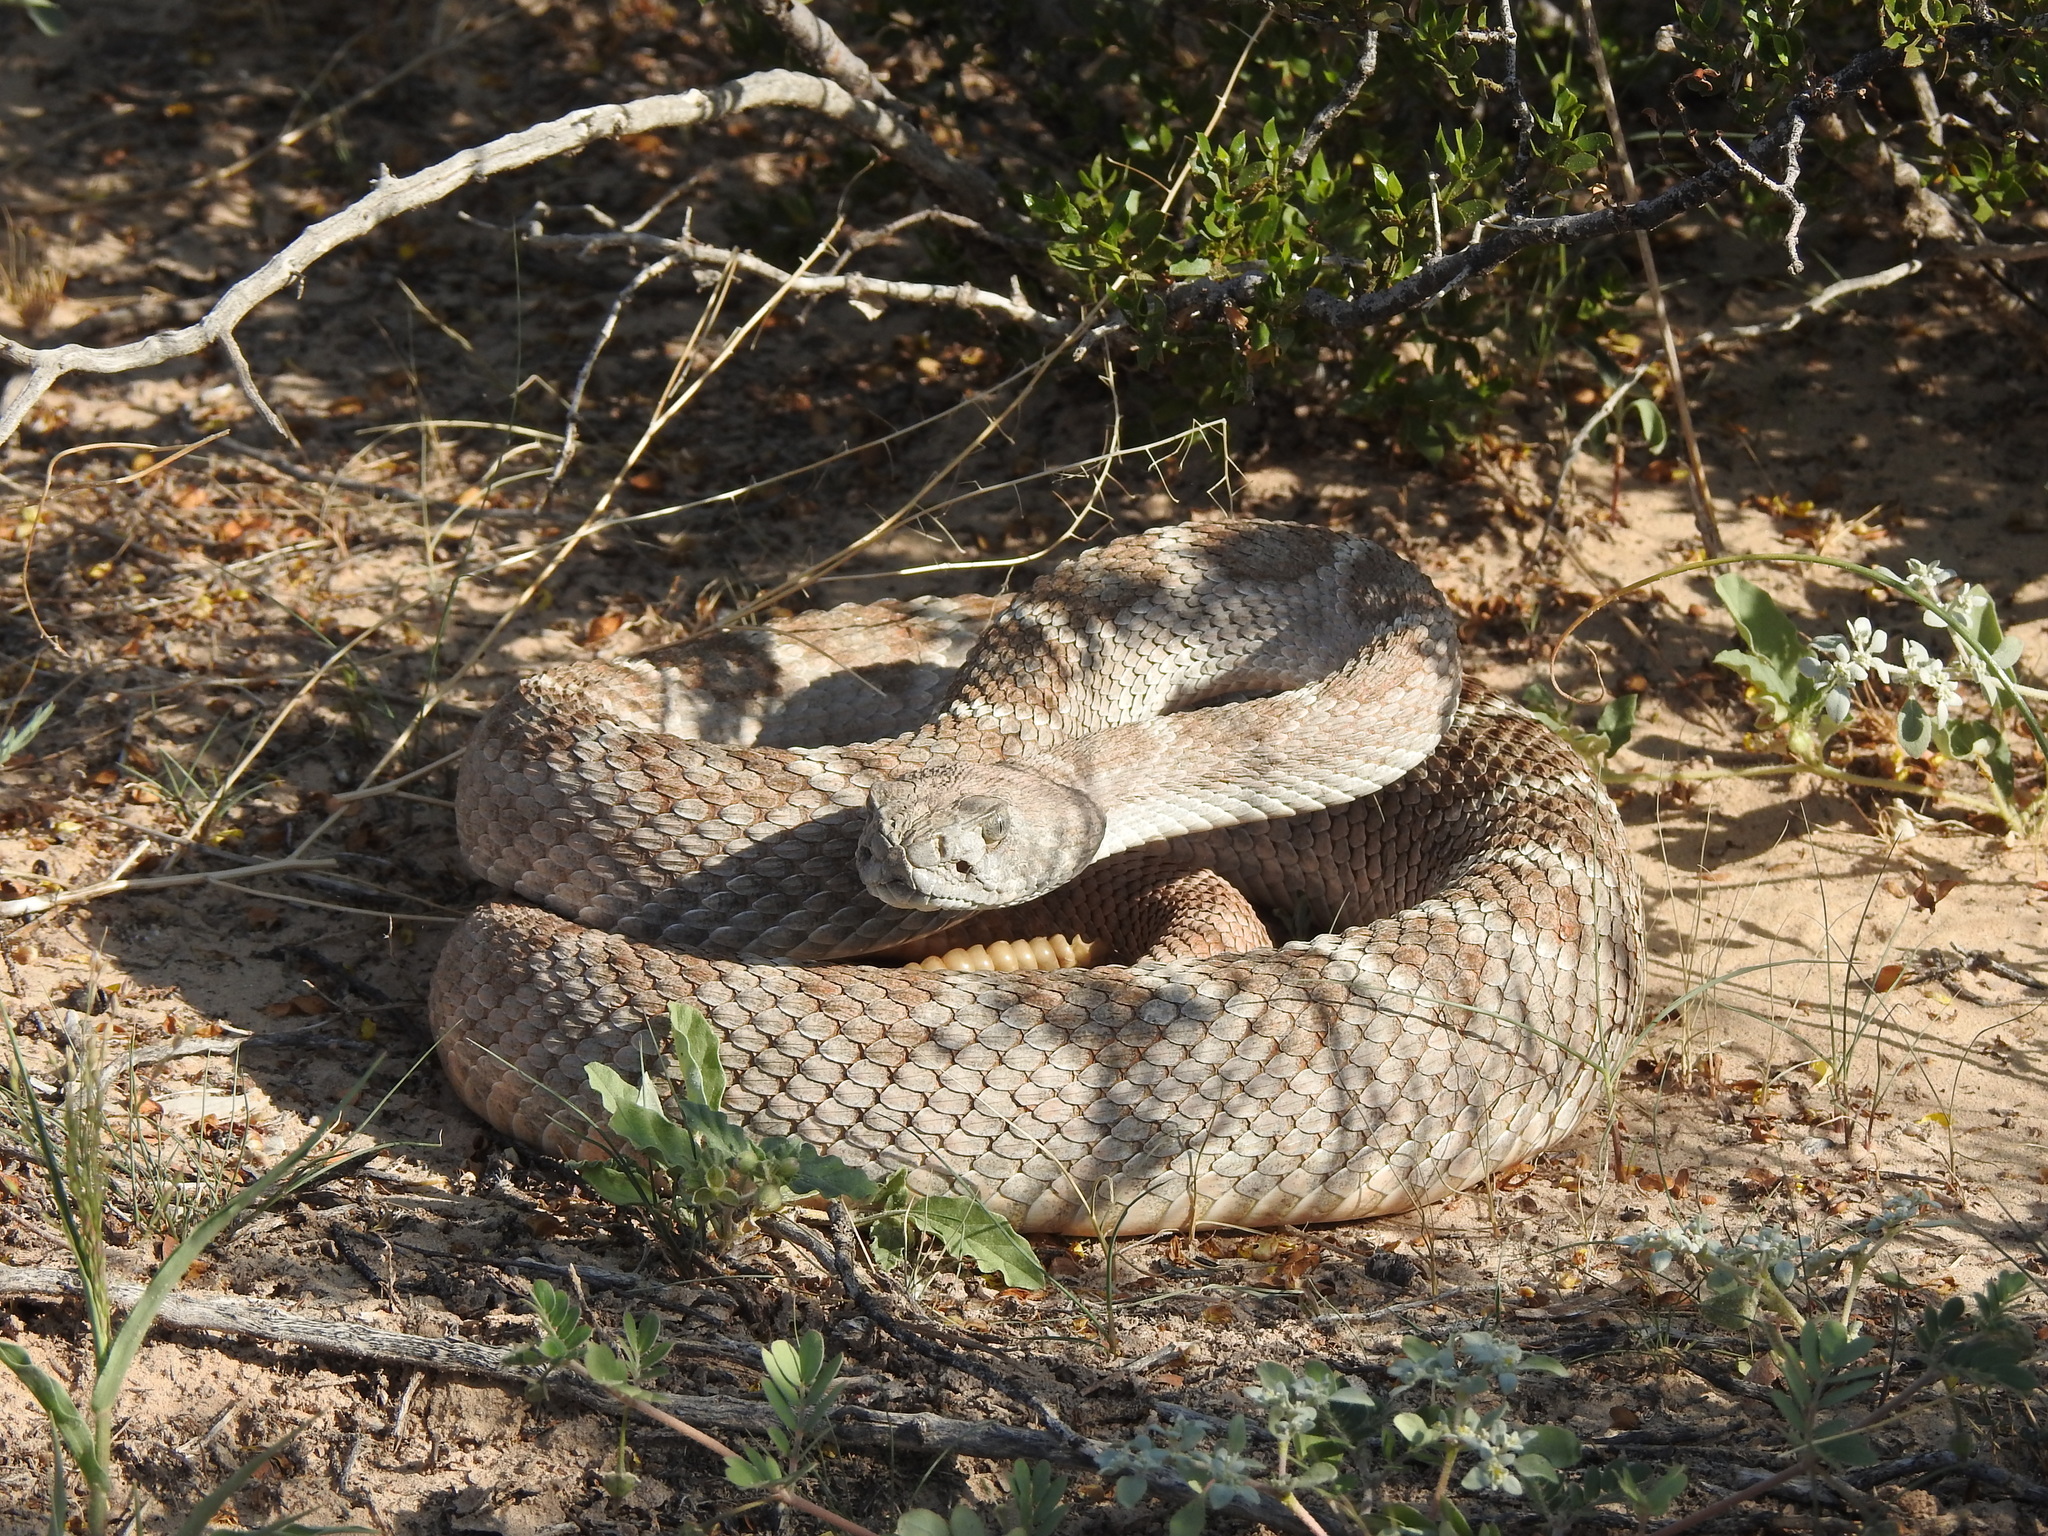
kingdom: Animalia
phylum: Chordata
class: Squamata
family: Viperidae
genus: Crotalus
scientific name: Crotalus atrox
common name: Western diamond-backed rattlesnake
